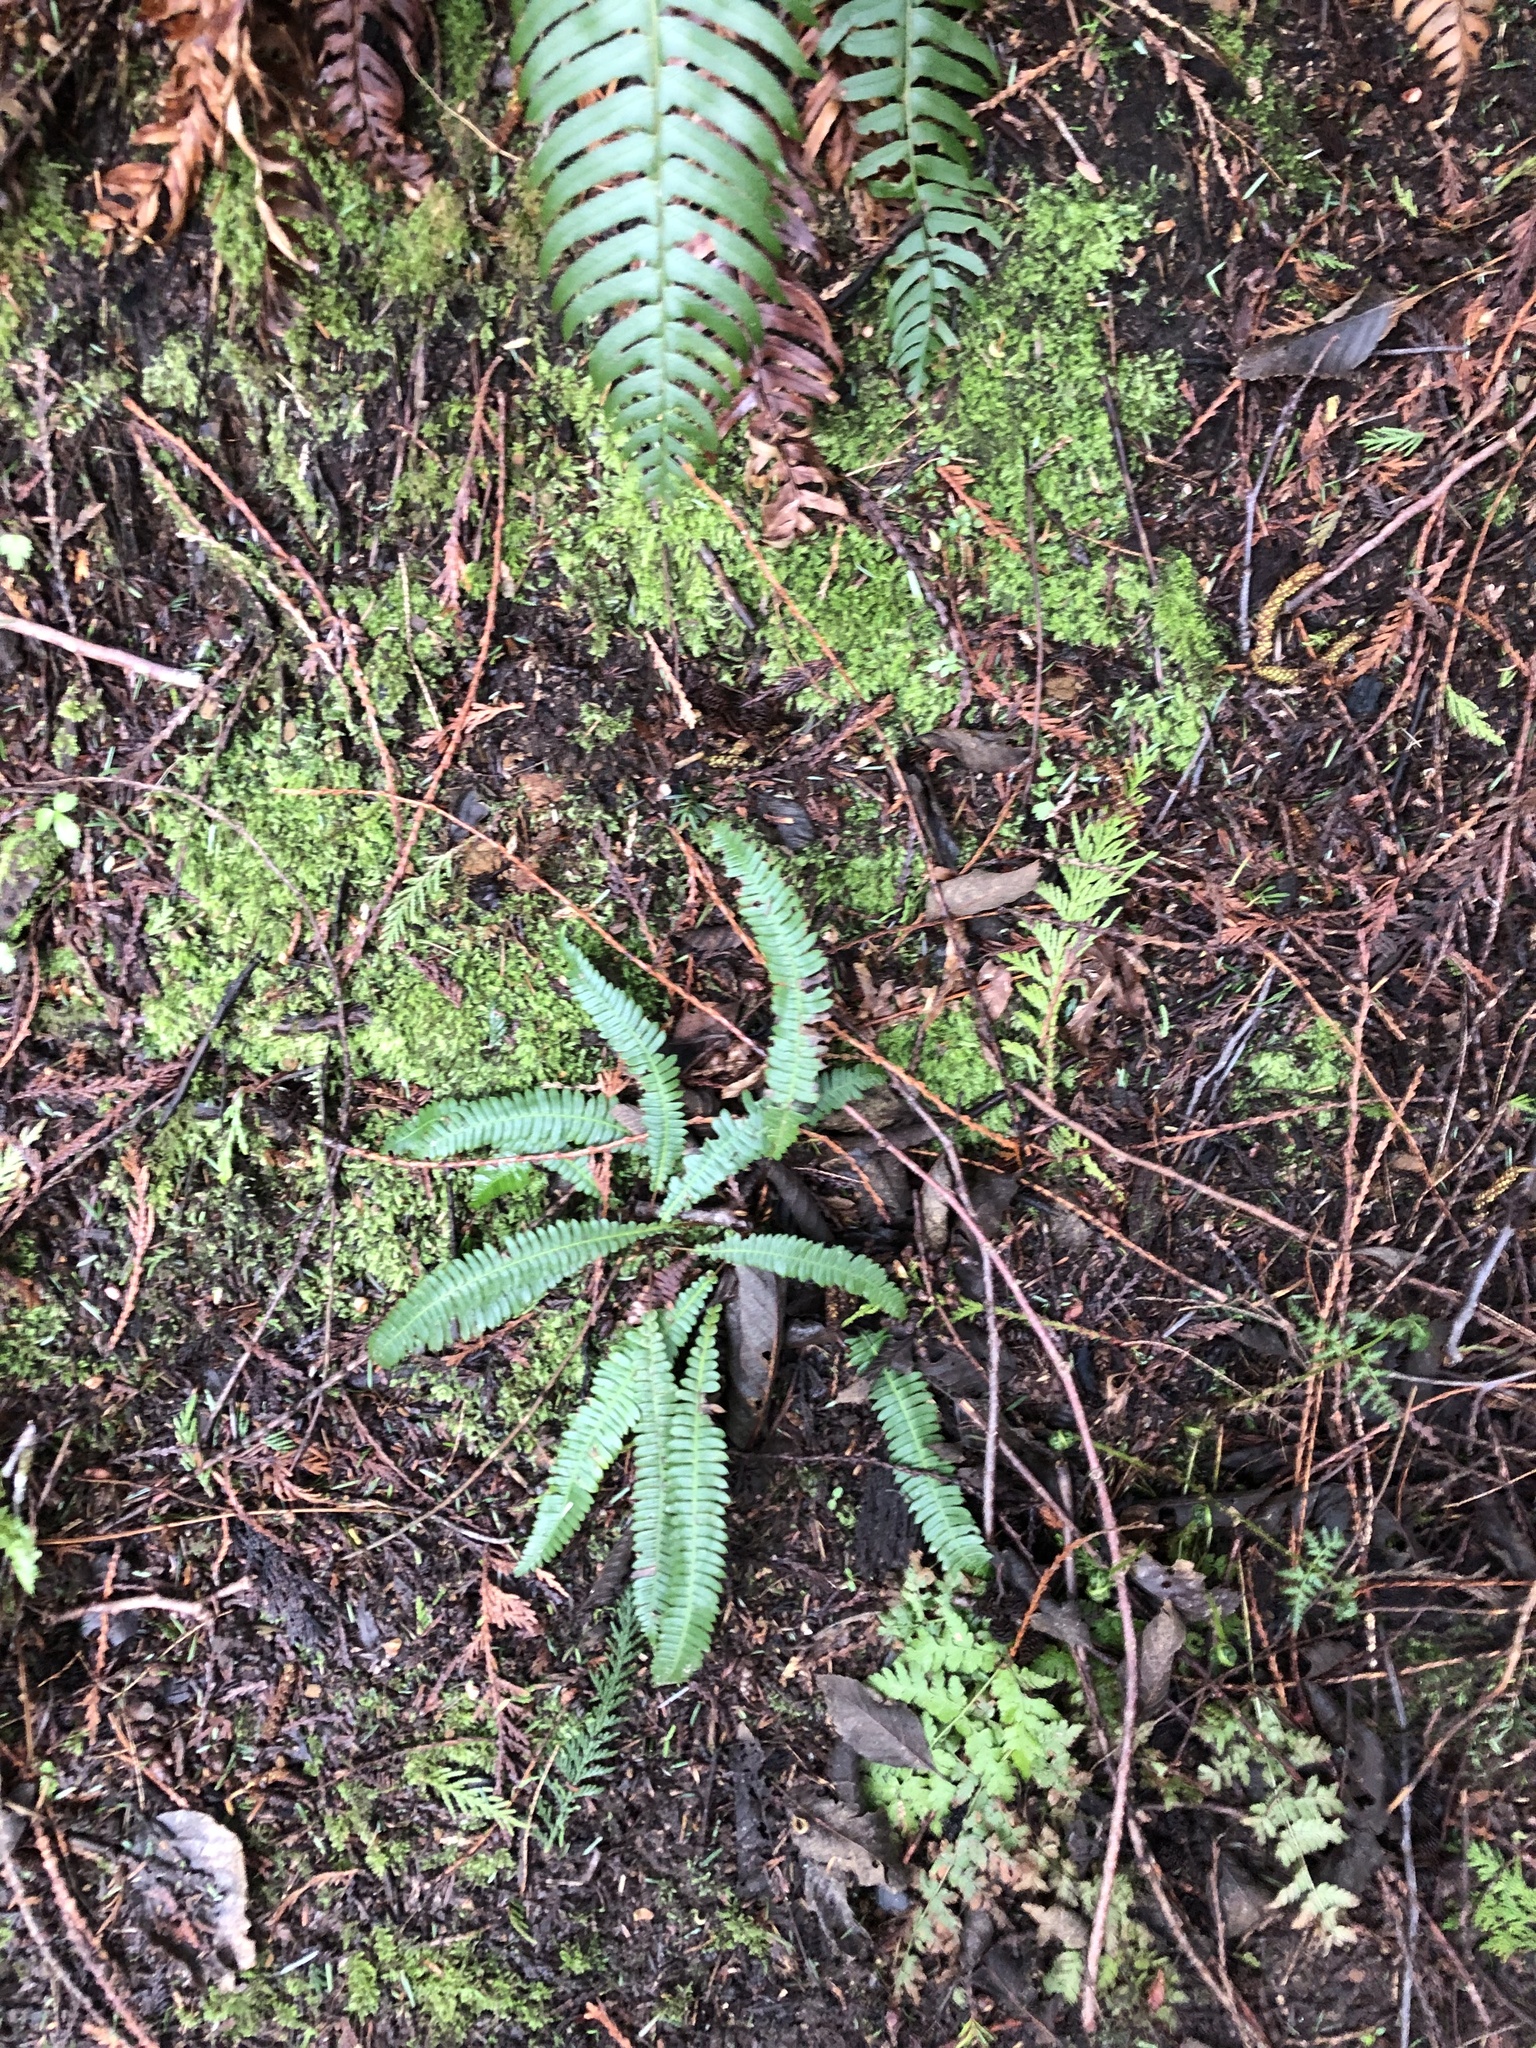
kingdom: Plantae
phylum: Tracheophyta
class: Polypodiopsida
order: Polypodiales
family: Blechnaceae
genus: Struthiopteris
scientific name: Struthiopteris spicant
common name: Deer fern
